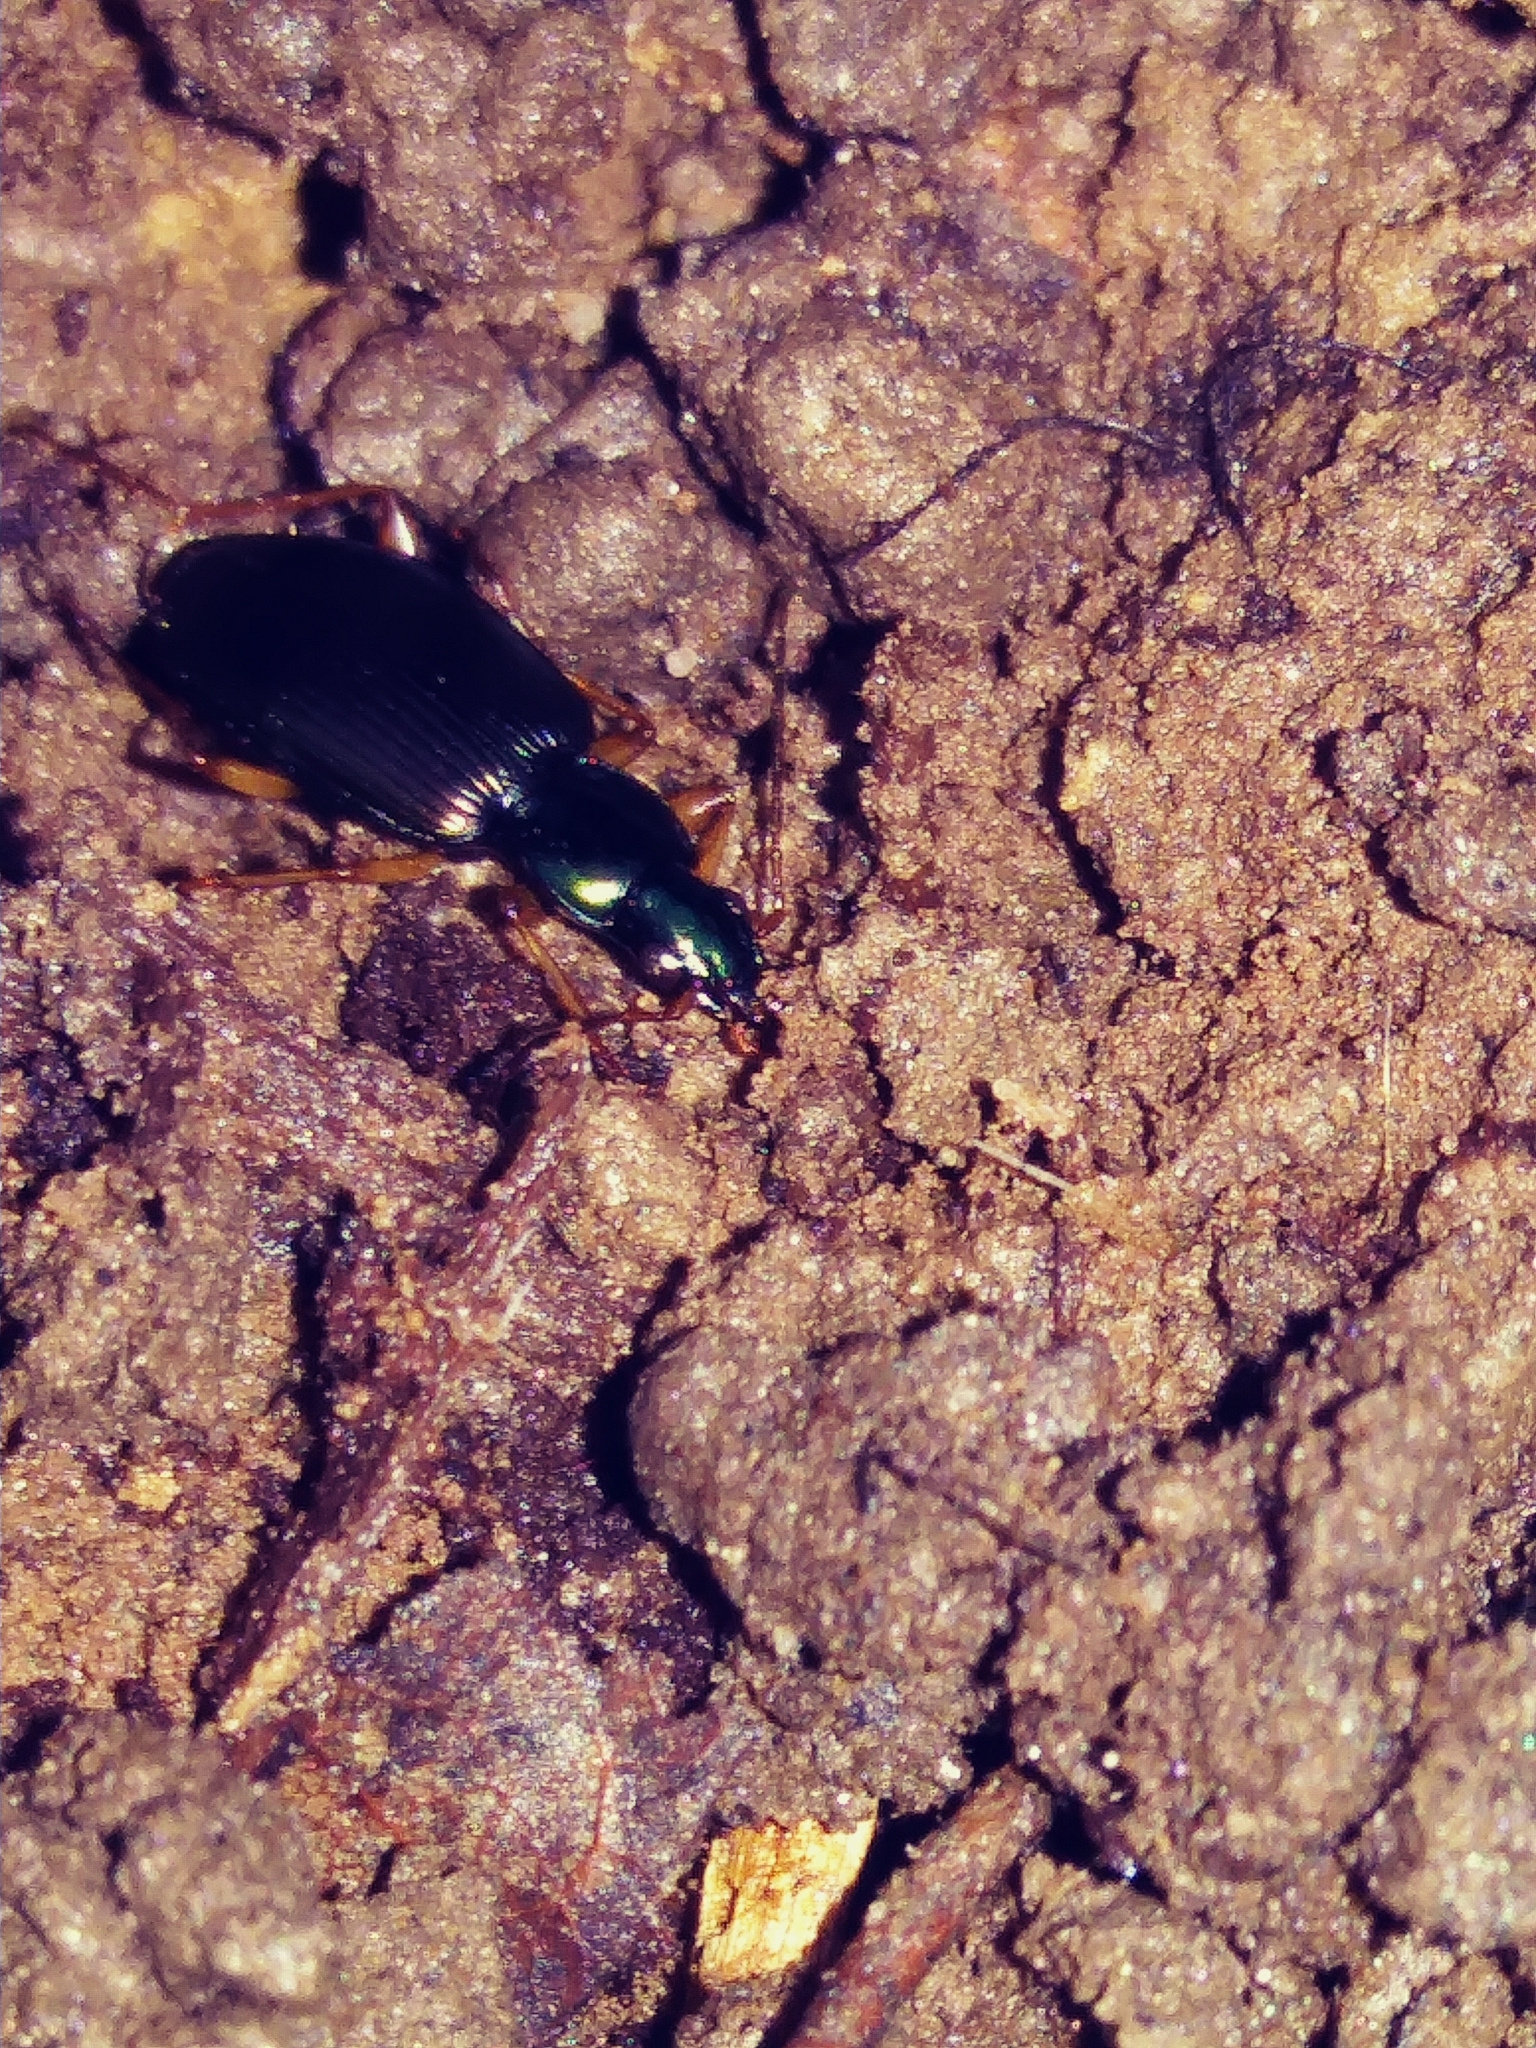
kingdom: Animalia
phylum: Arthropoda
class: Insecta
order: Coleoptera
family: Carabidae
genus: Agonum
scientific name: Agonum extensicolle
